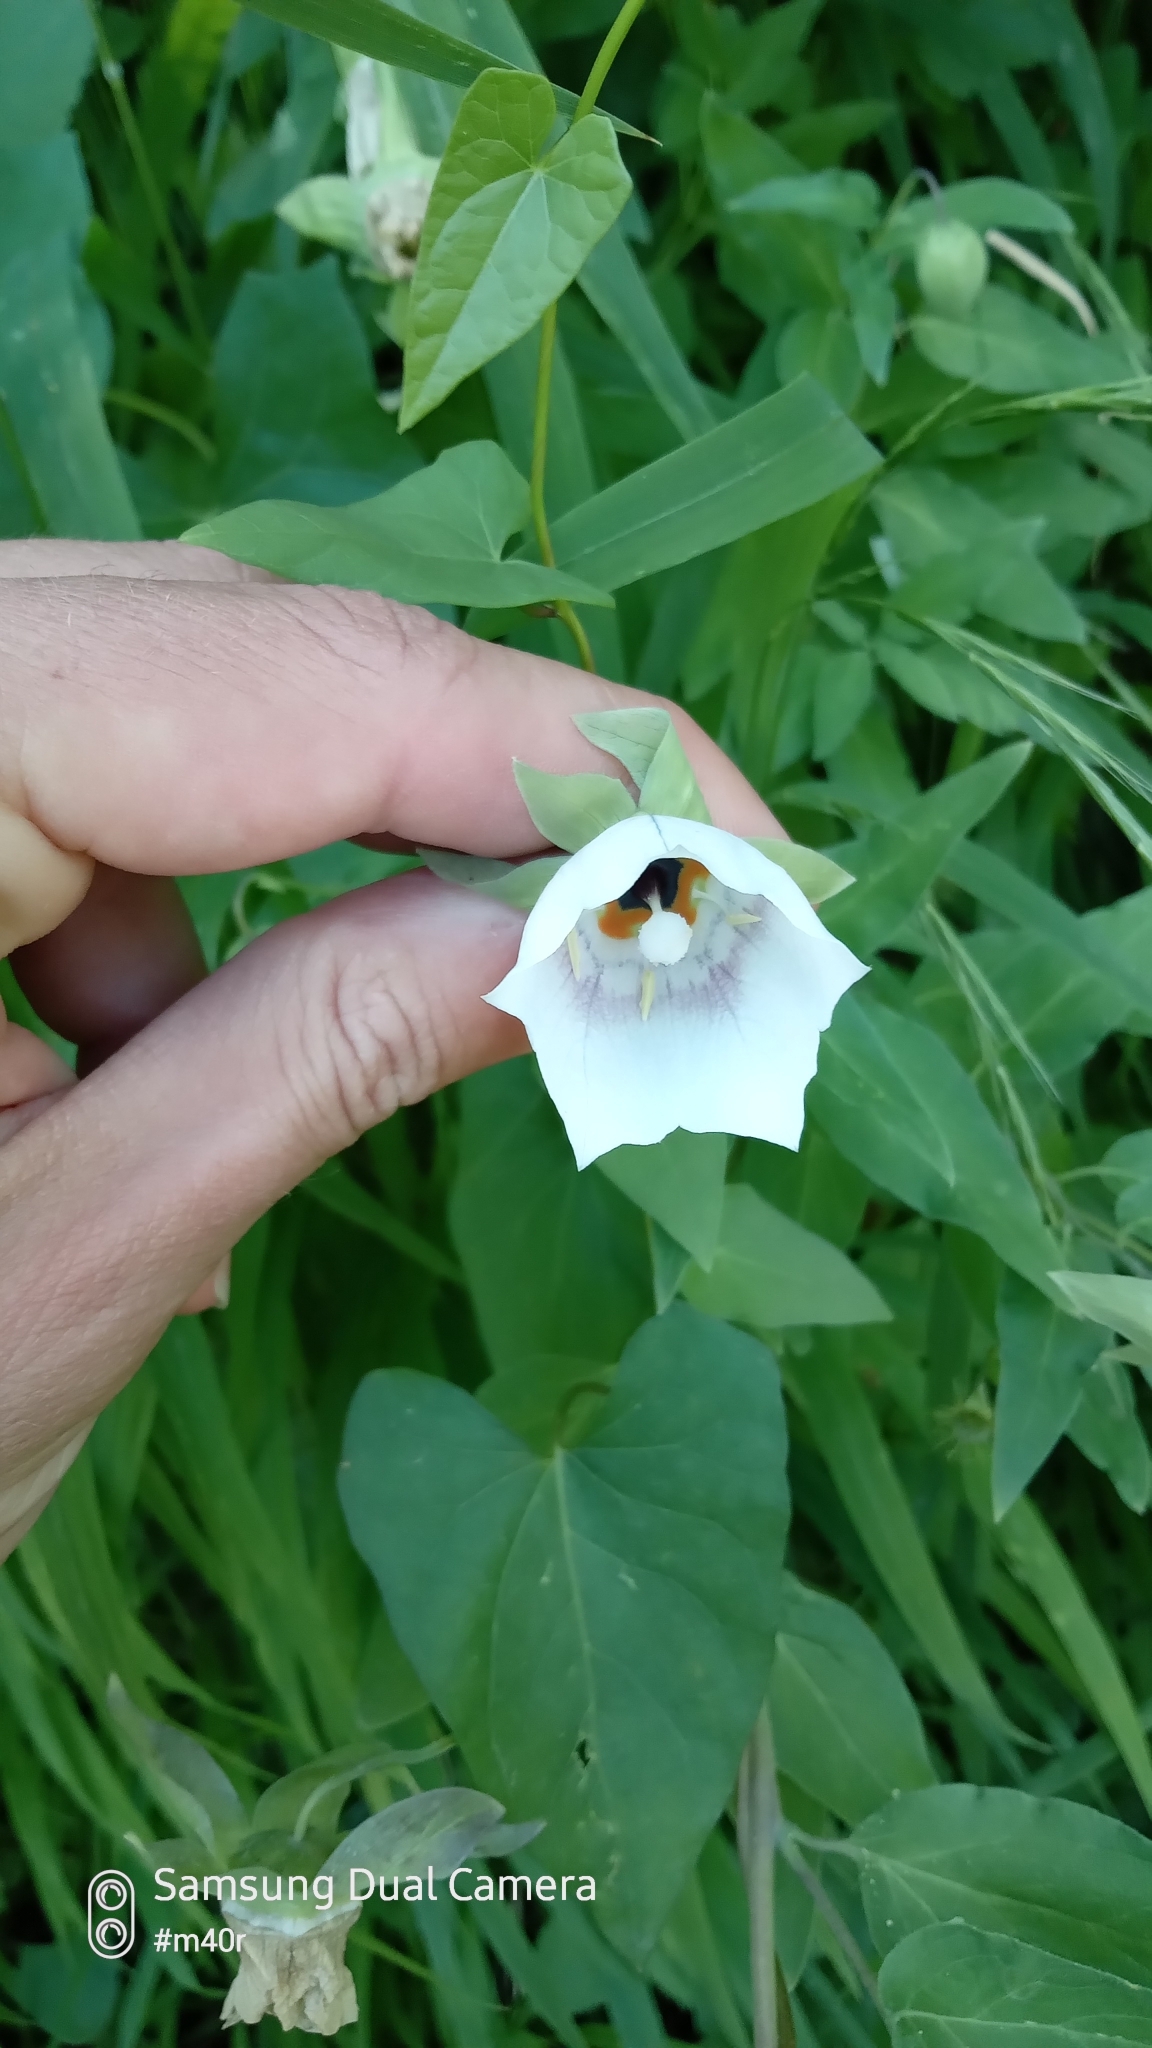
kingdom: Plantae
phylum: Tracheophyta
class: Magnoliopsida
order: Asterales
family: Campanulaceae
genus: Codonopsis
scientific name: Codonopsis clematidea
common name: Bonnet-bellflower
